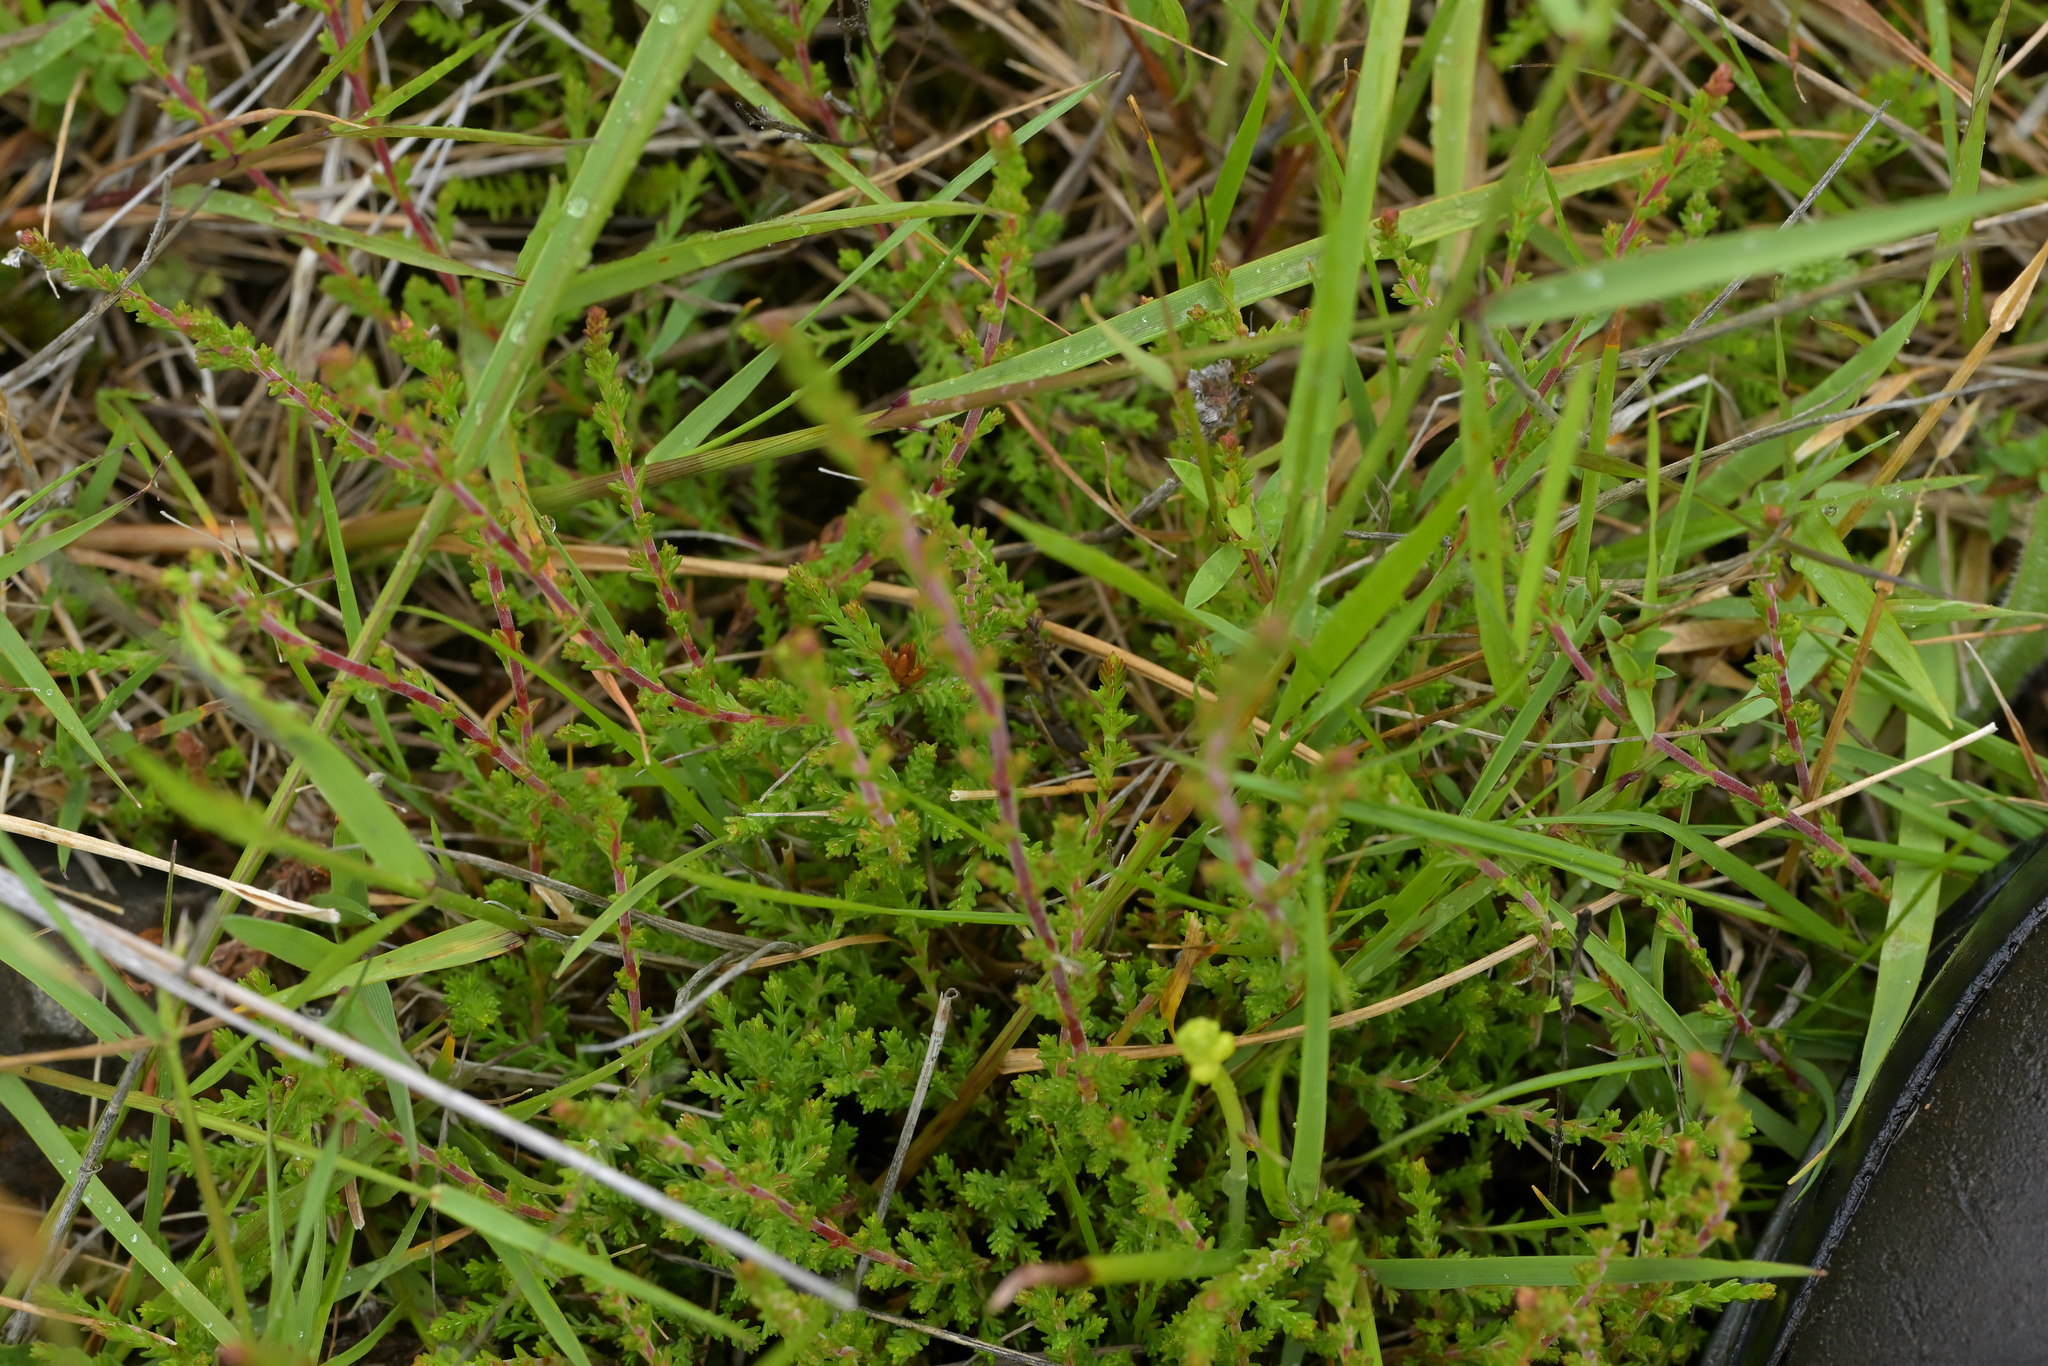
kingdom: Plantae
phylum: Tracheophyta
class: Magnoliopsida
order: Ericales
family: Ericaceae
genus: Calluna
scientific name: Calluna vulgaris
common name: Heather
